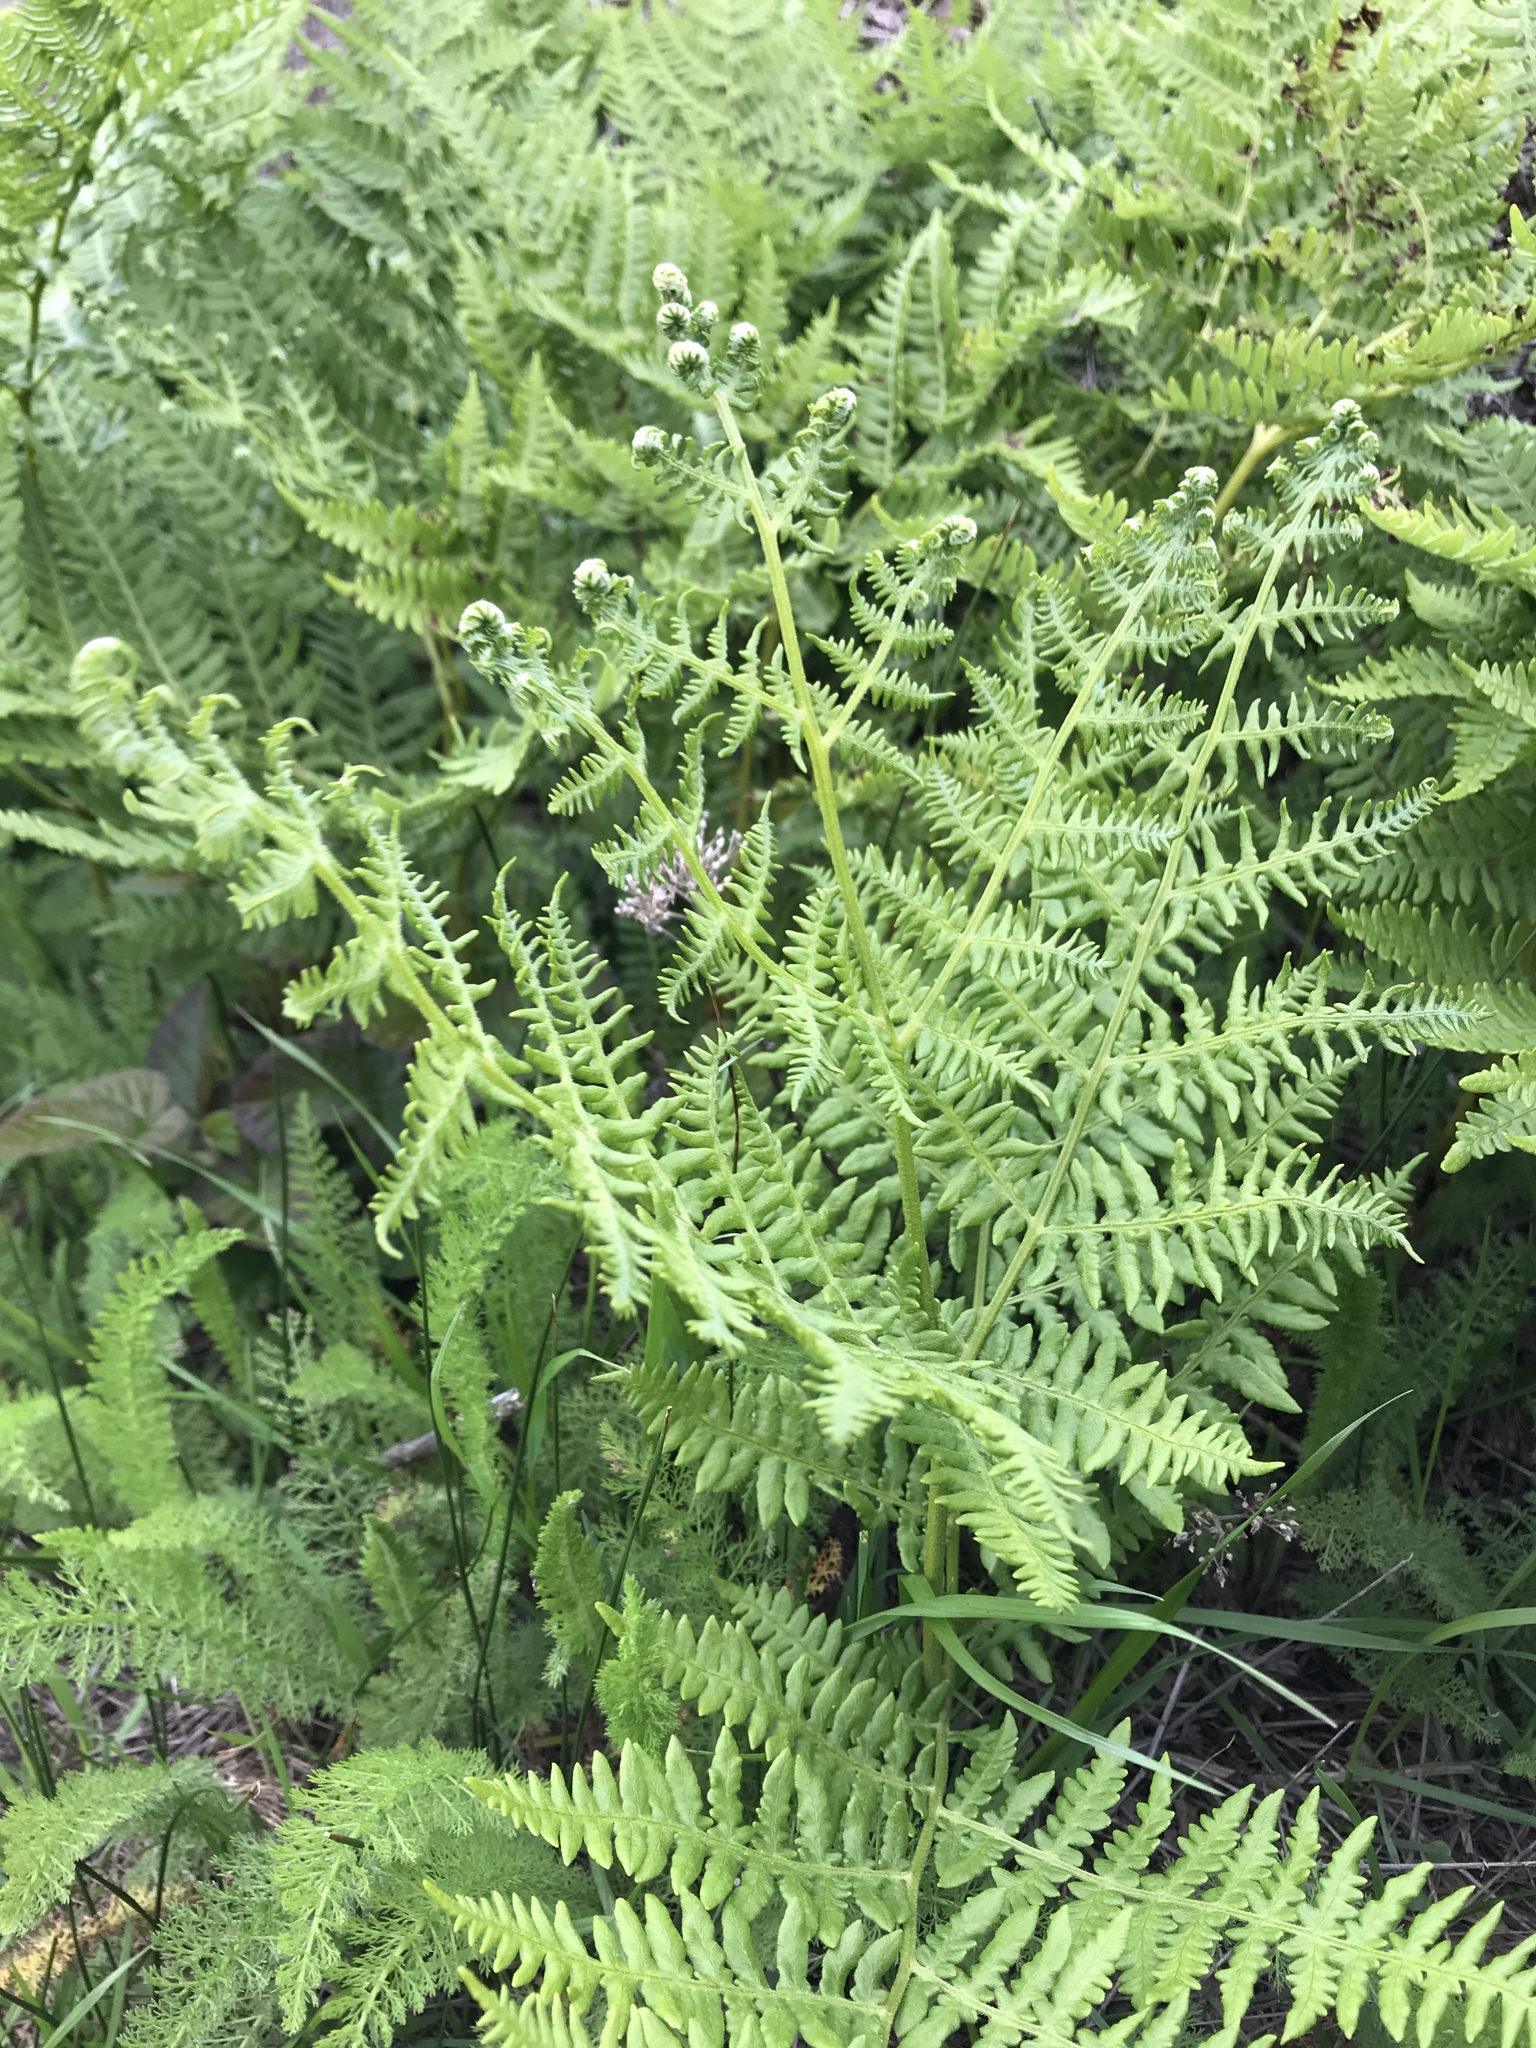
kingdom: Plantae
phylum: Tracheophyta
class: Polypodiopsida
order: Polypodiales
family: Dennstaedtiaceae
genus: Pteridium
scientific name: Pteridium aquilinum
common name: Bracken
